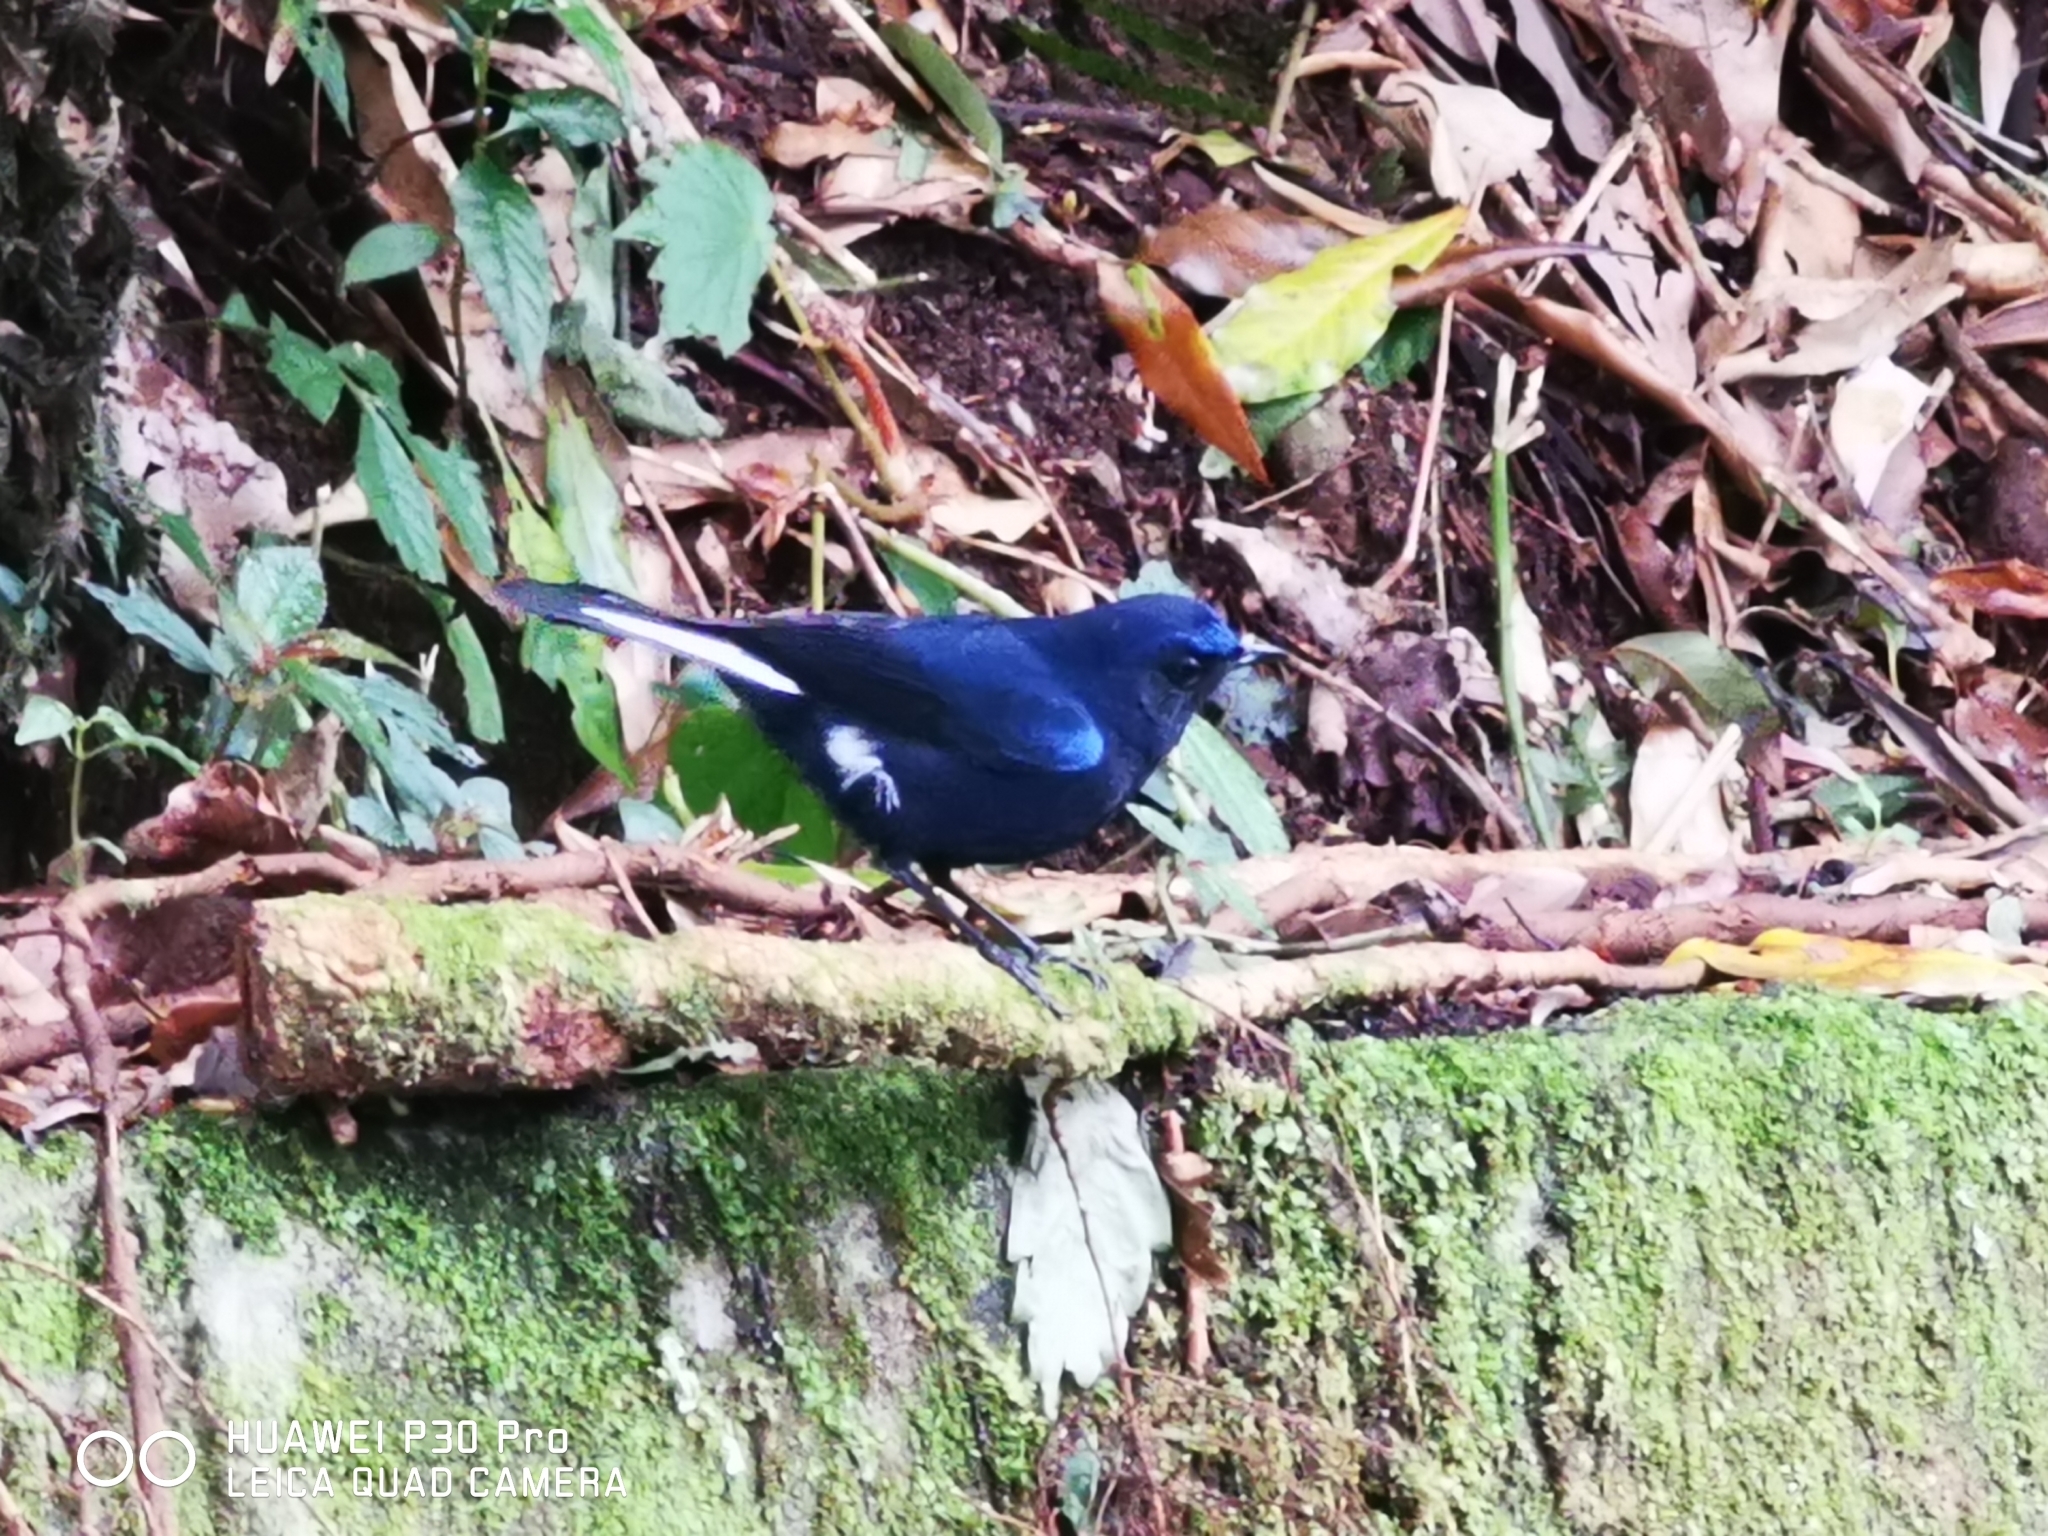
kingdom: Animalia
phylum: Chordata
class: Aves
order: Passeriformes
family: Muscicapidae
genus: Myiomela
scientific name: Myiomela leucura
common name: White-tailed robin
